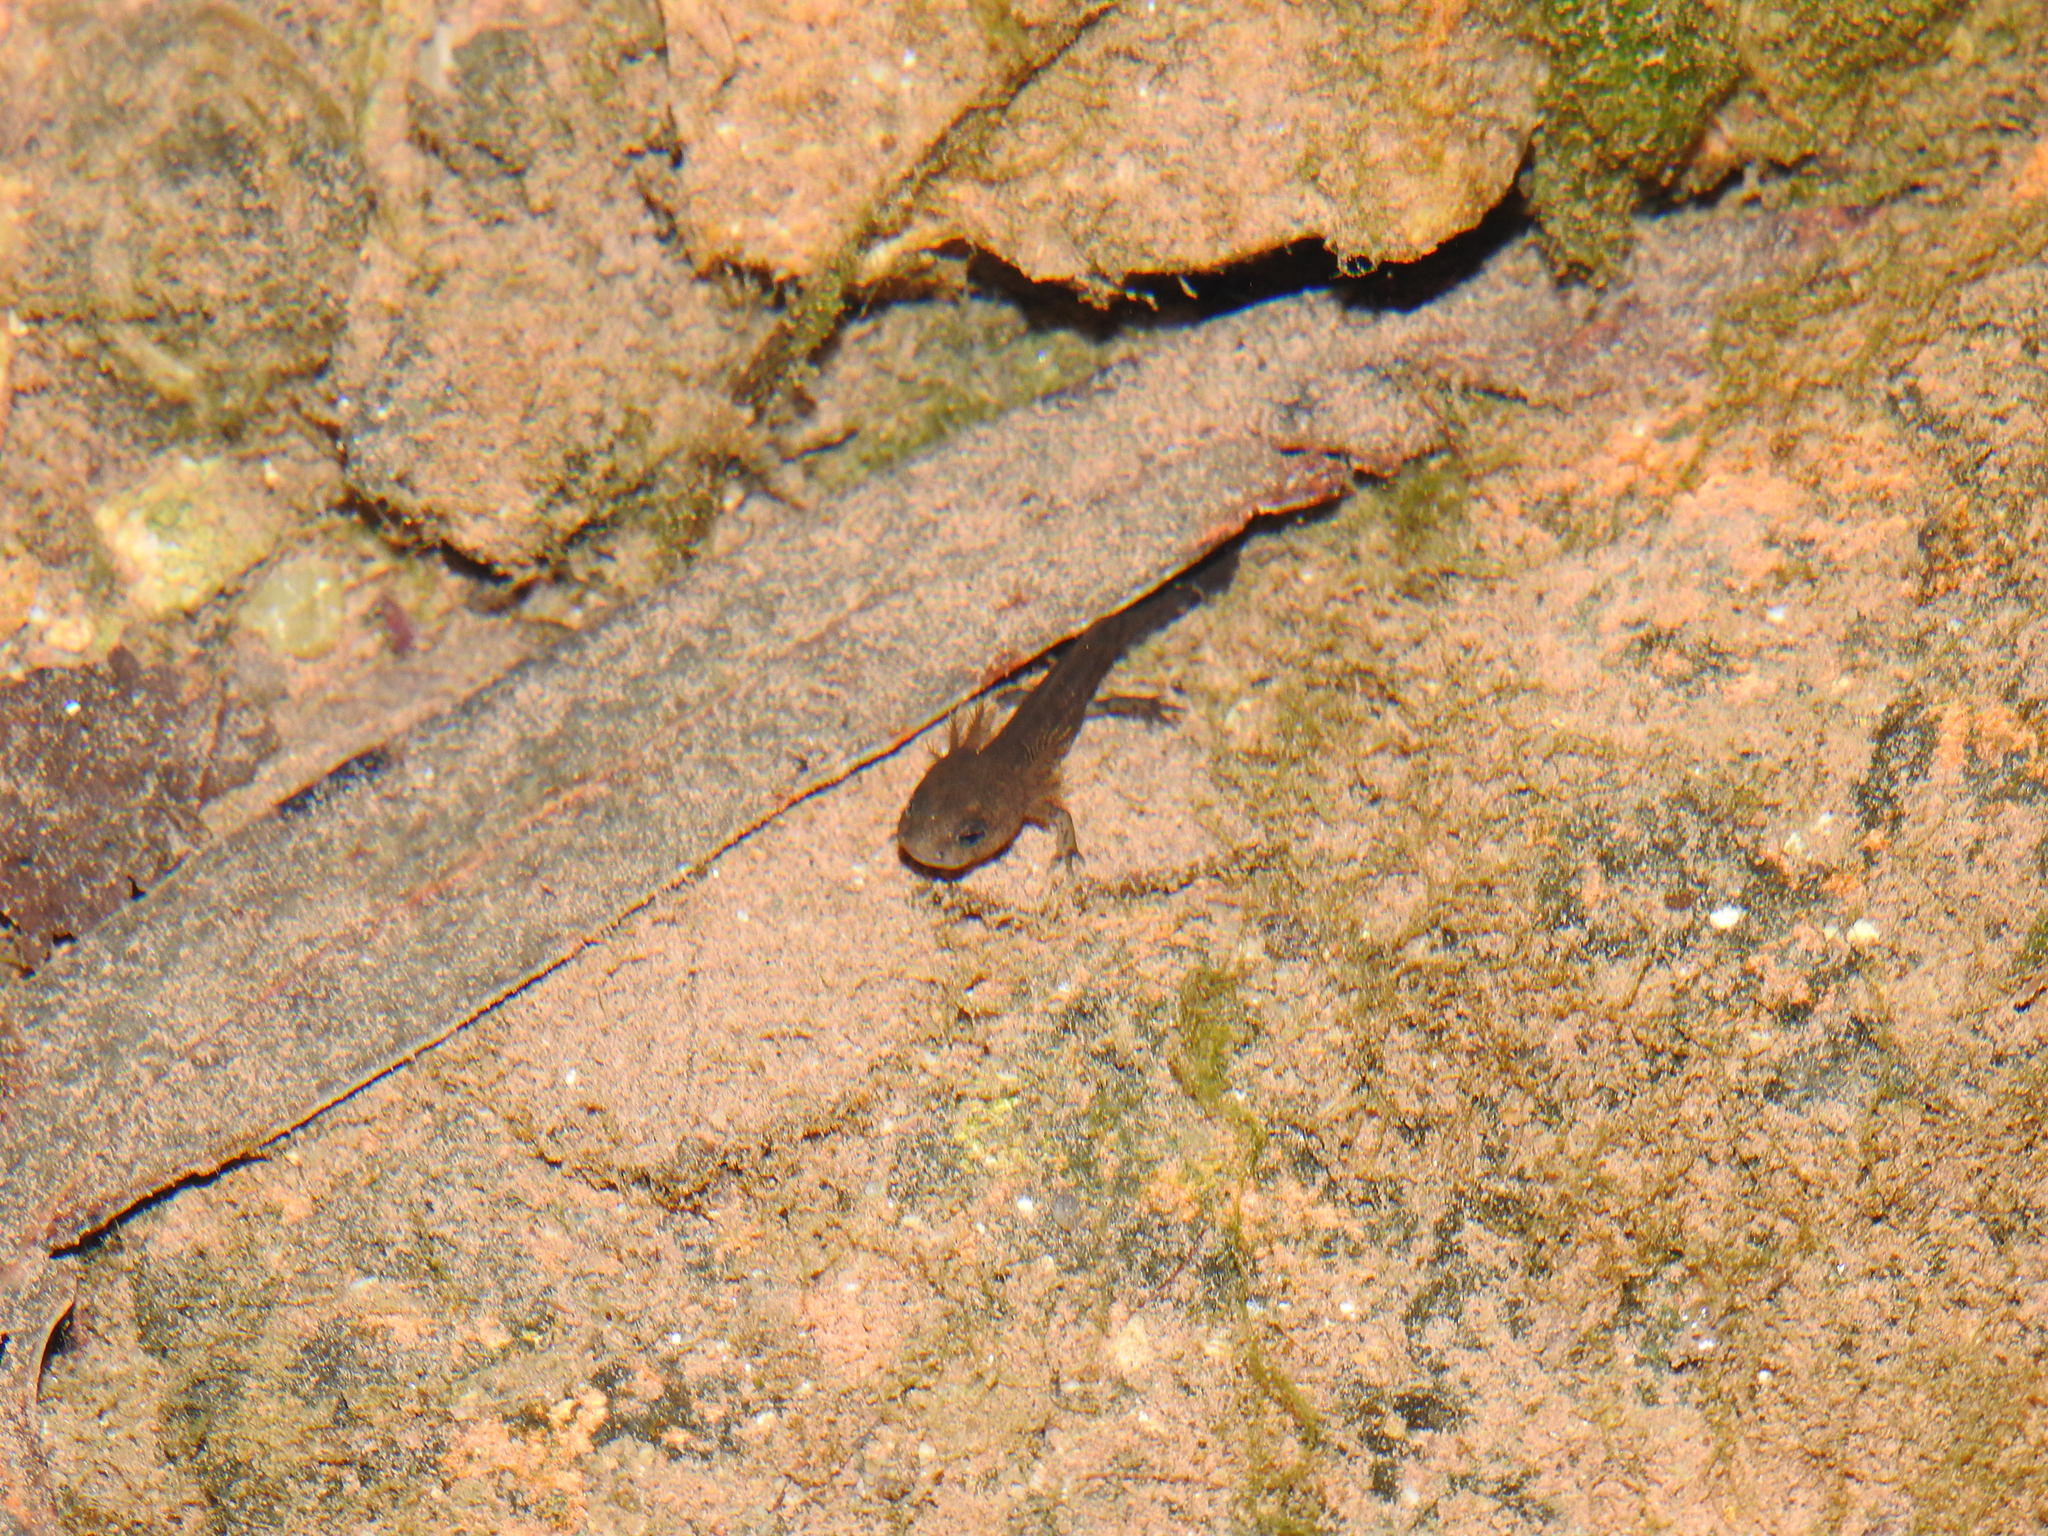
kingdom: Animalia
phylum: Chordata
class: Amphibia
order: Caudata
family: Salamandridae
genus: Salamandra
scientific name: Salamandra salamandra
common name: Fire salamander
